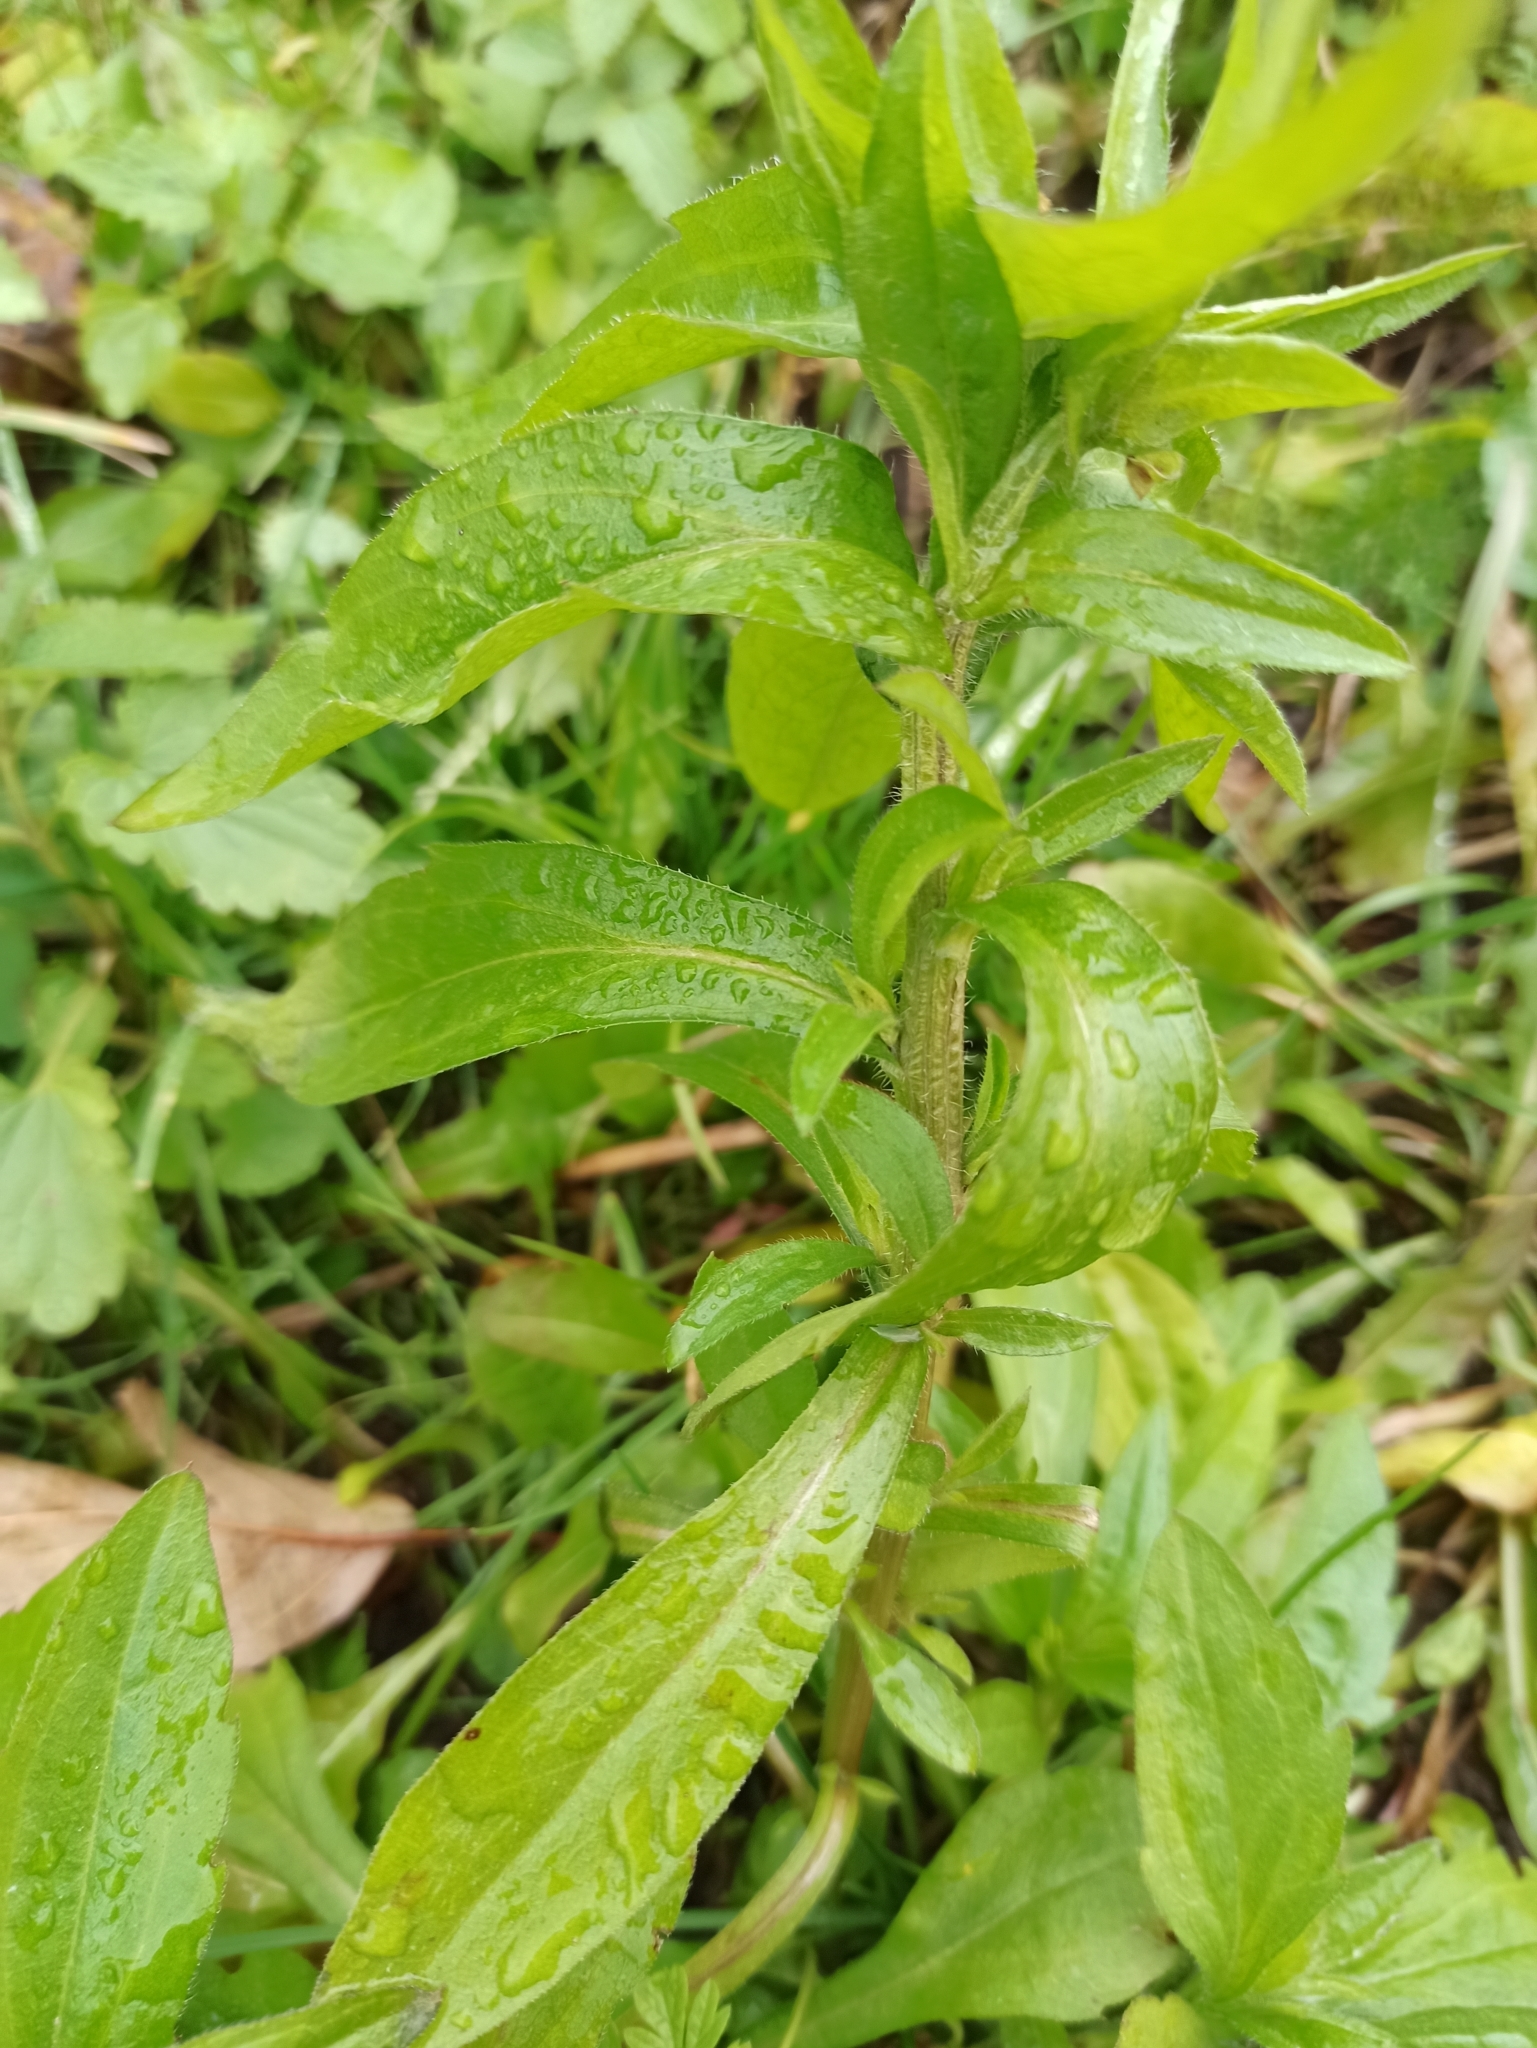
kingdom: Plantae
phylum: Tracheophyta
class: Magnoliopsida
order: Asterales
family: Asteraceae
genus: Erigeron
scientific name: Erigeron annuus
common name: Tall fleabane
